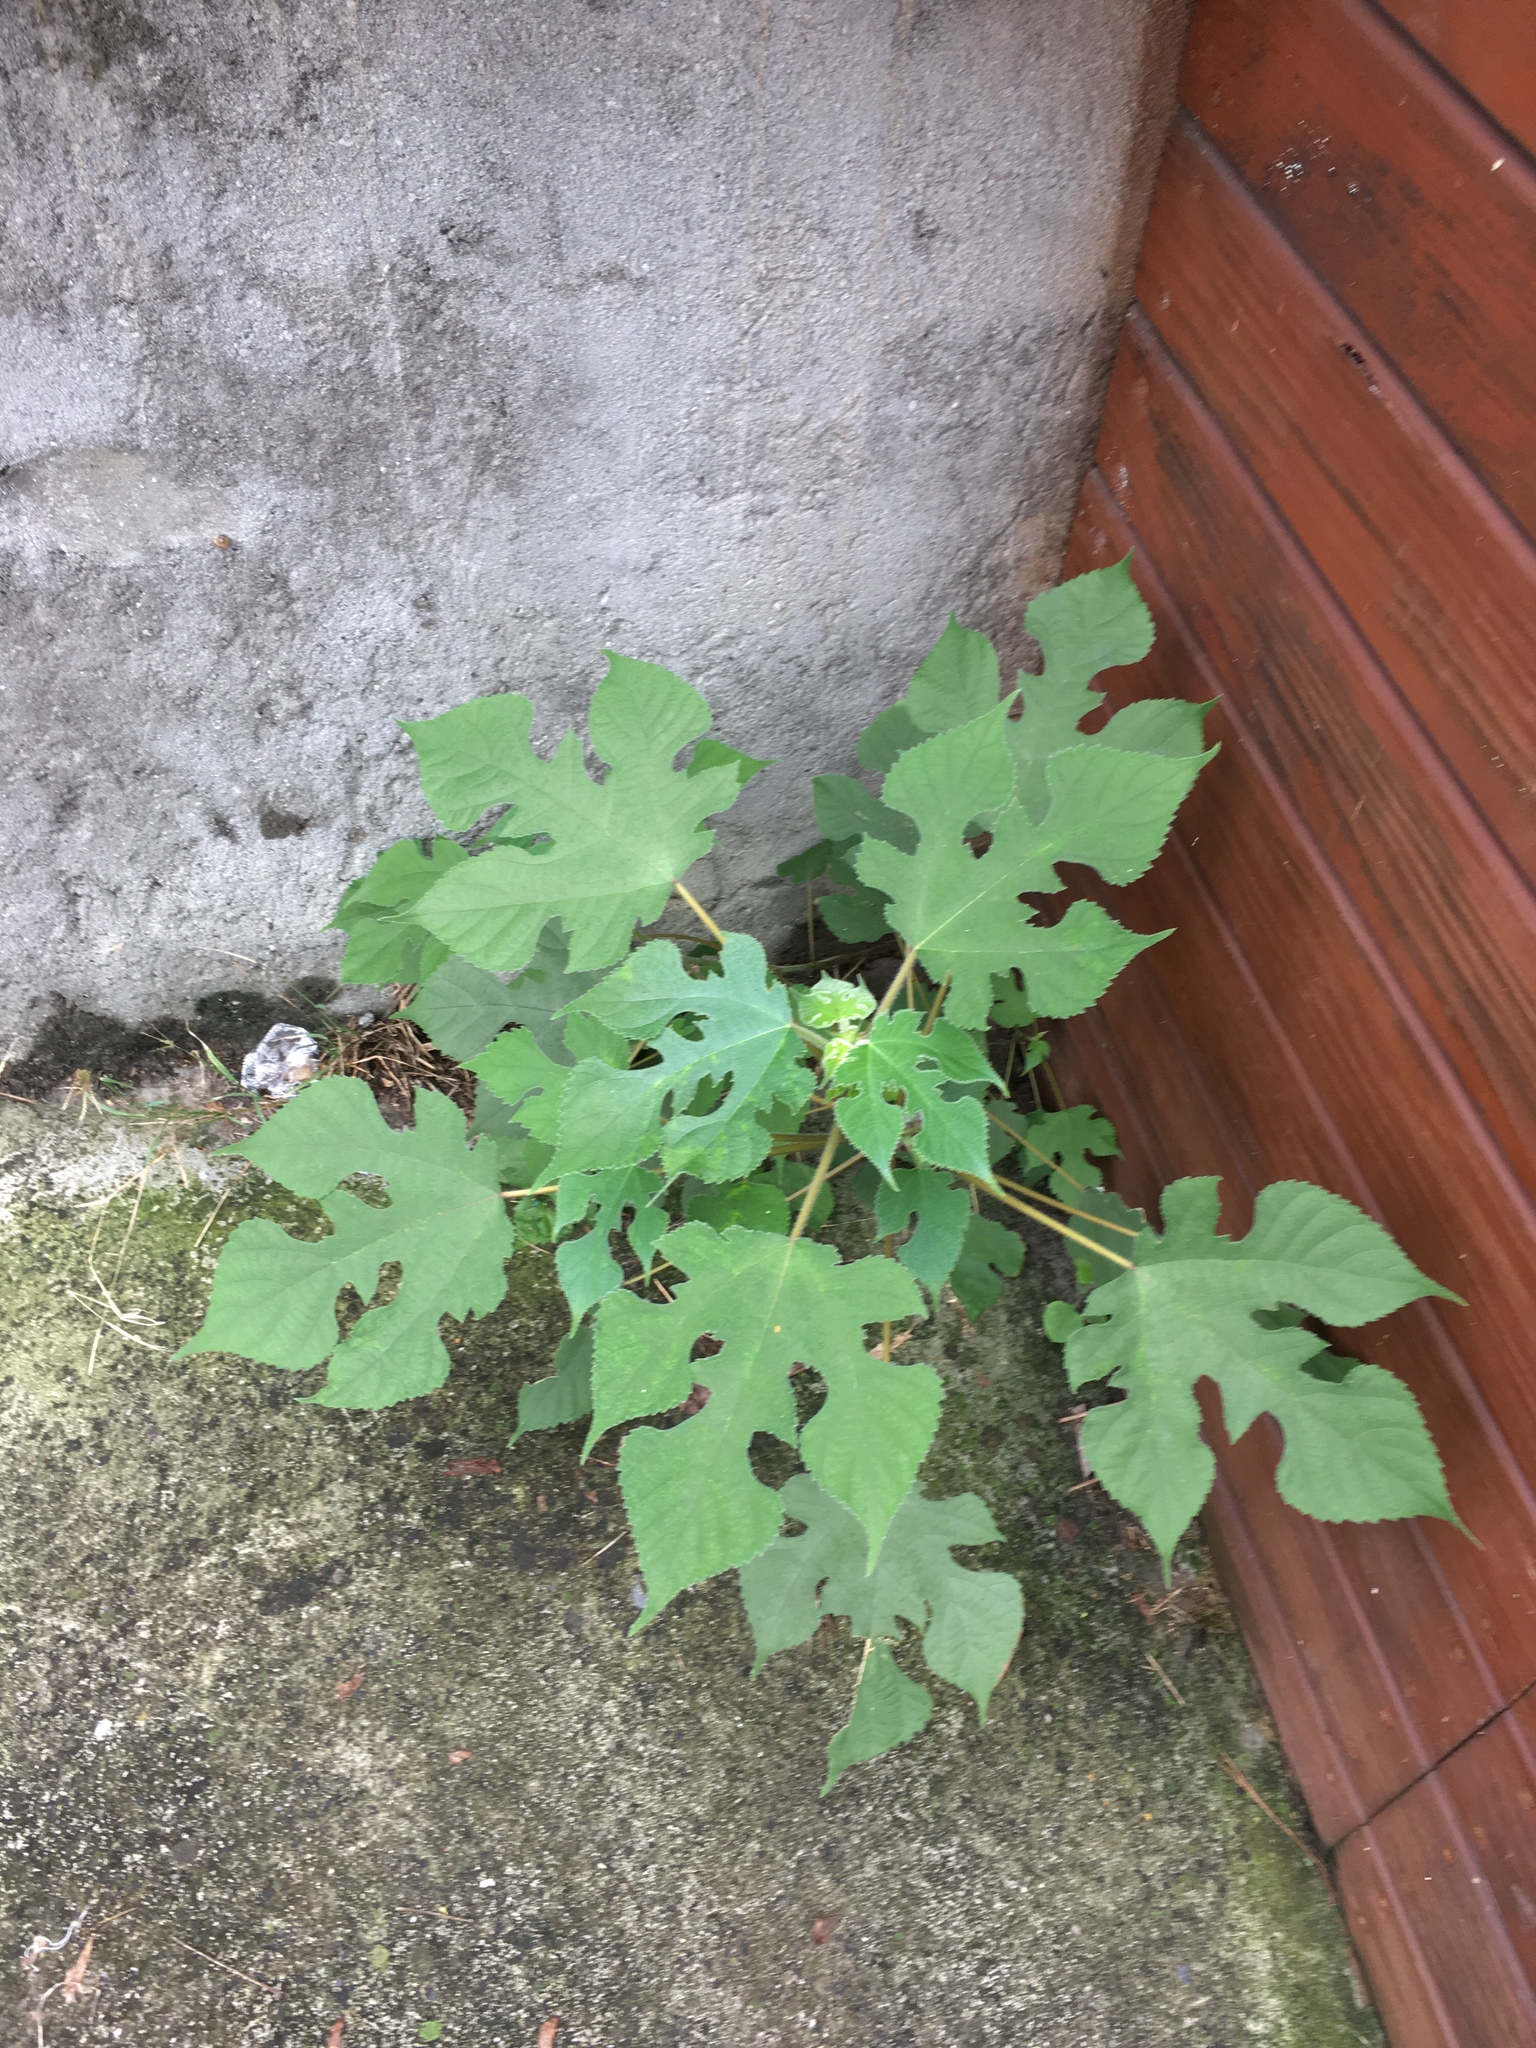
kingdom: Plantae
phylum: Tracheophyta
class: Magnoliopsida
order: Rosales
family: Moraceae
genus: Broussonetia
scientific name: Broussonetia papyrifera
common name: Paper mulberry
